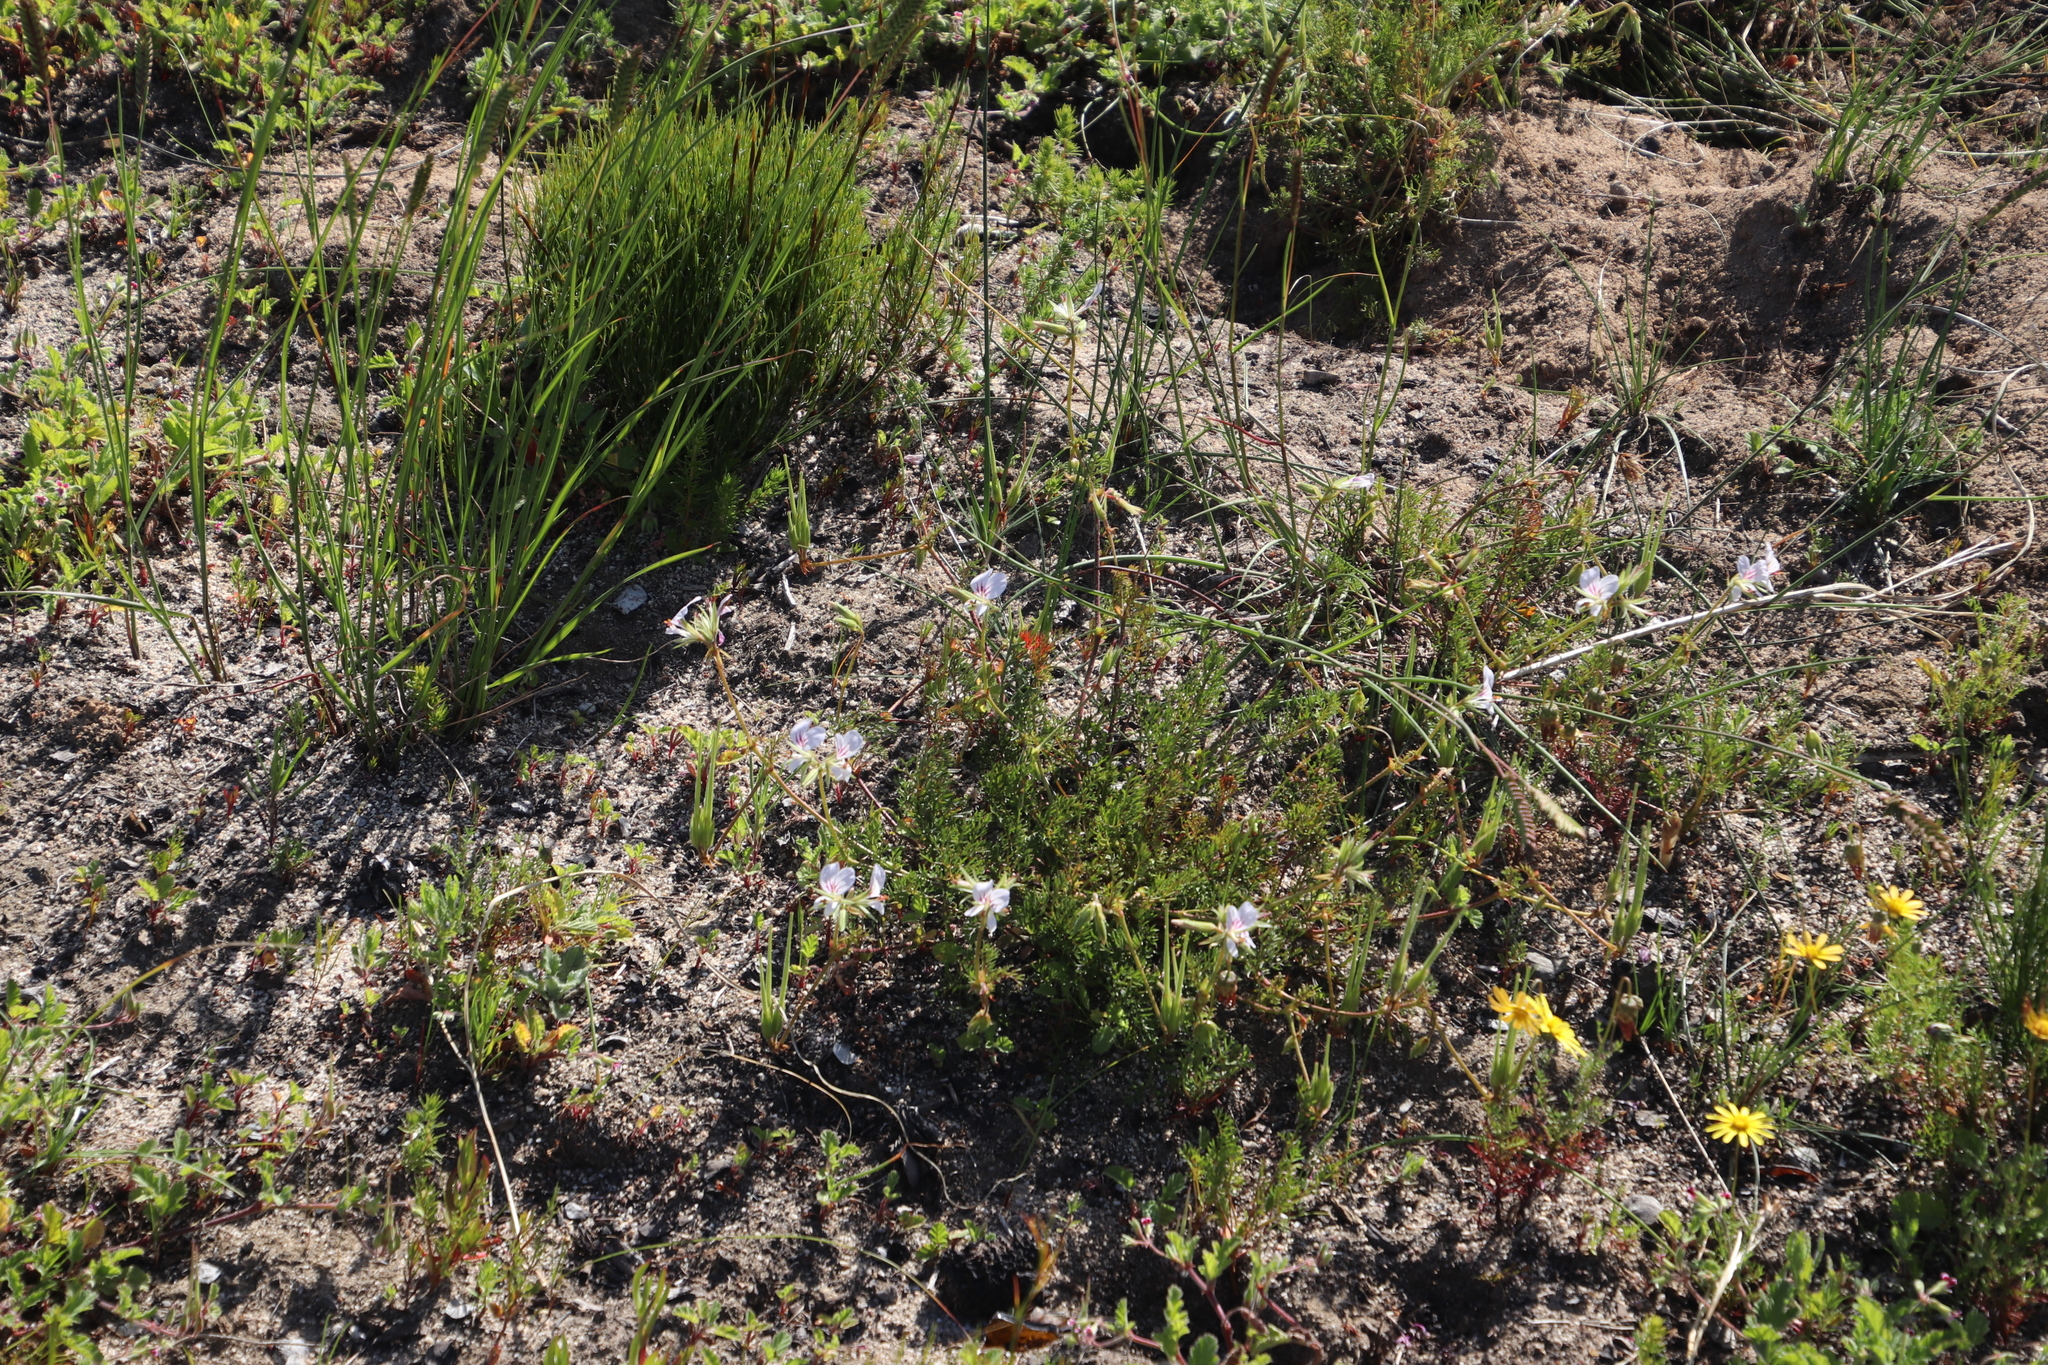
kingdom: Plantae
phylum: Tracheophyta
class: Magnoliopsida
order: Geraniales
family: Geraniaceae
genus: Pelargonium
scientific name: Pelargonium myrrhifolium
